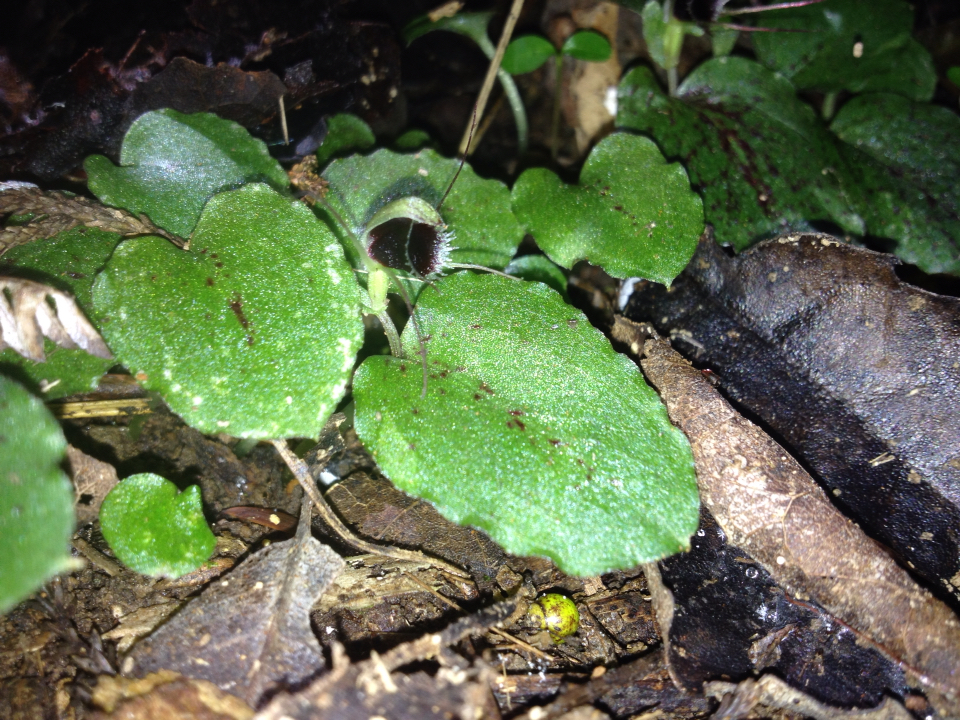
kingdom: Plantae
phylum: Tracheophyta
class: Liliopsida
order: Asparagales
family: Orchidaceae
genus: Corybas
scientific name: Corybas oblongus
